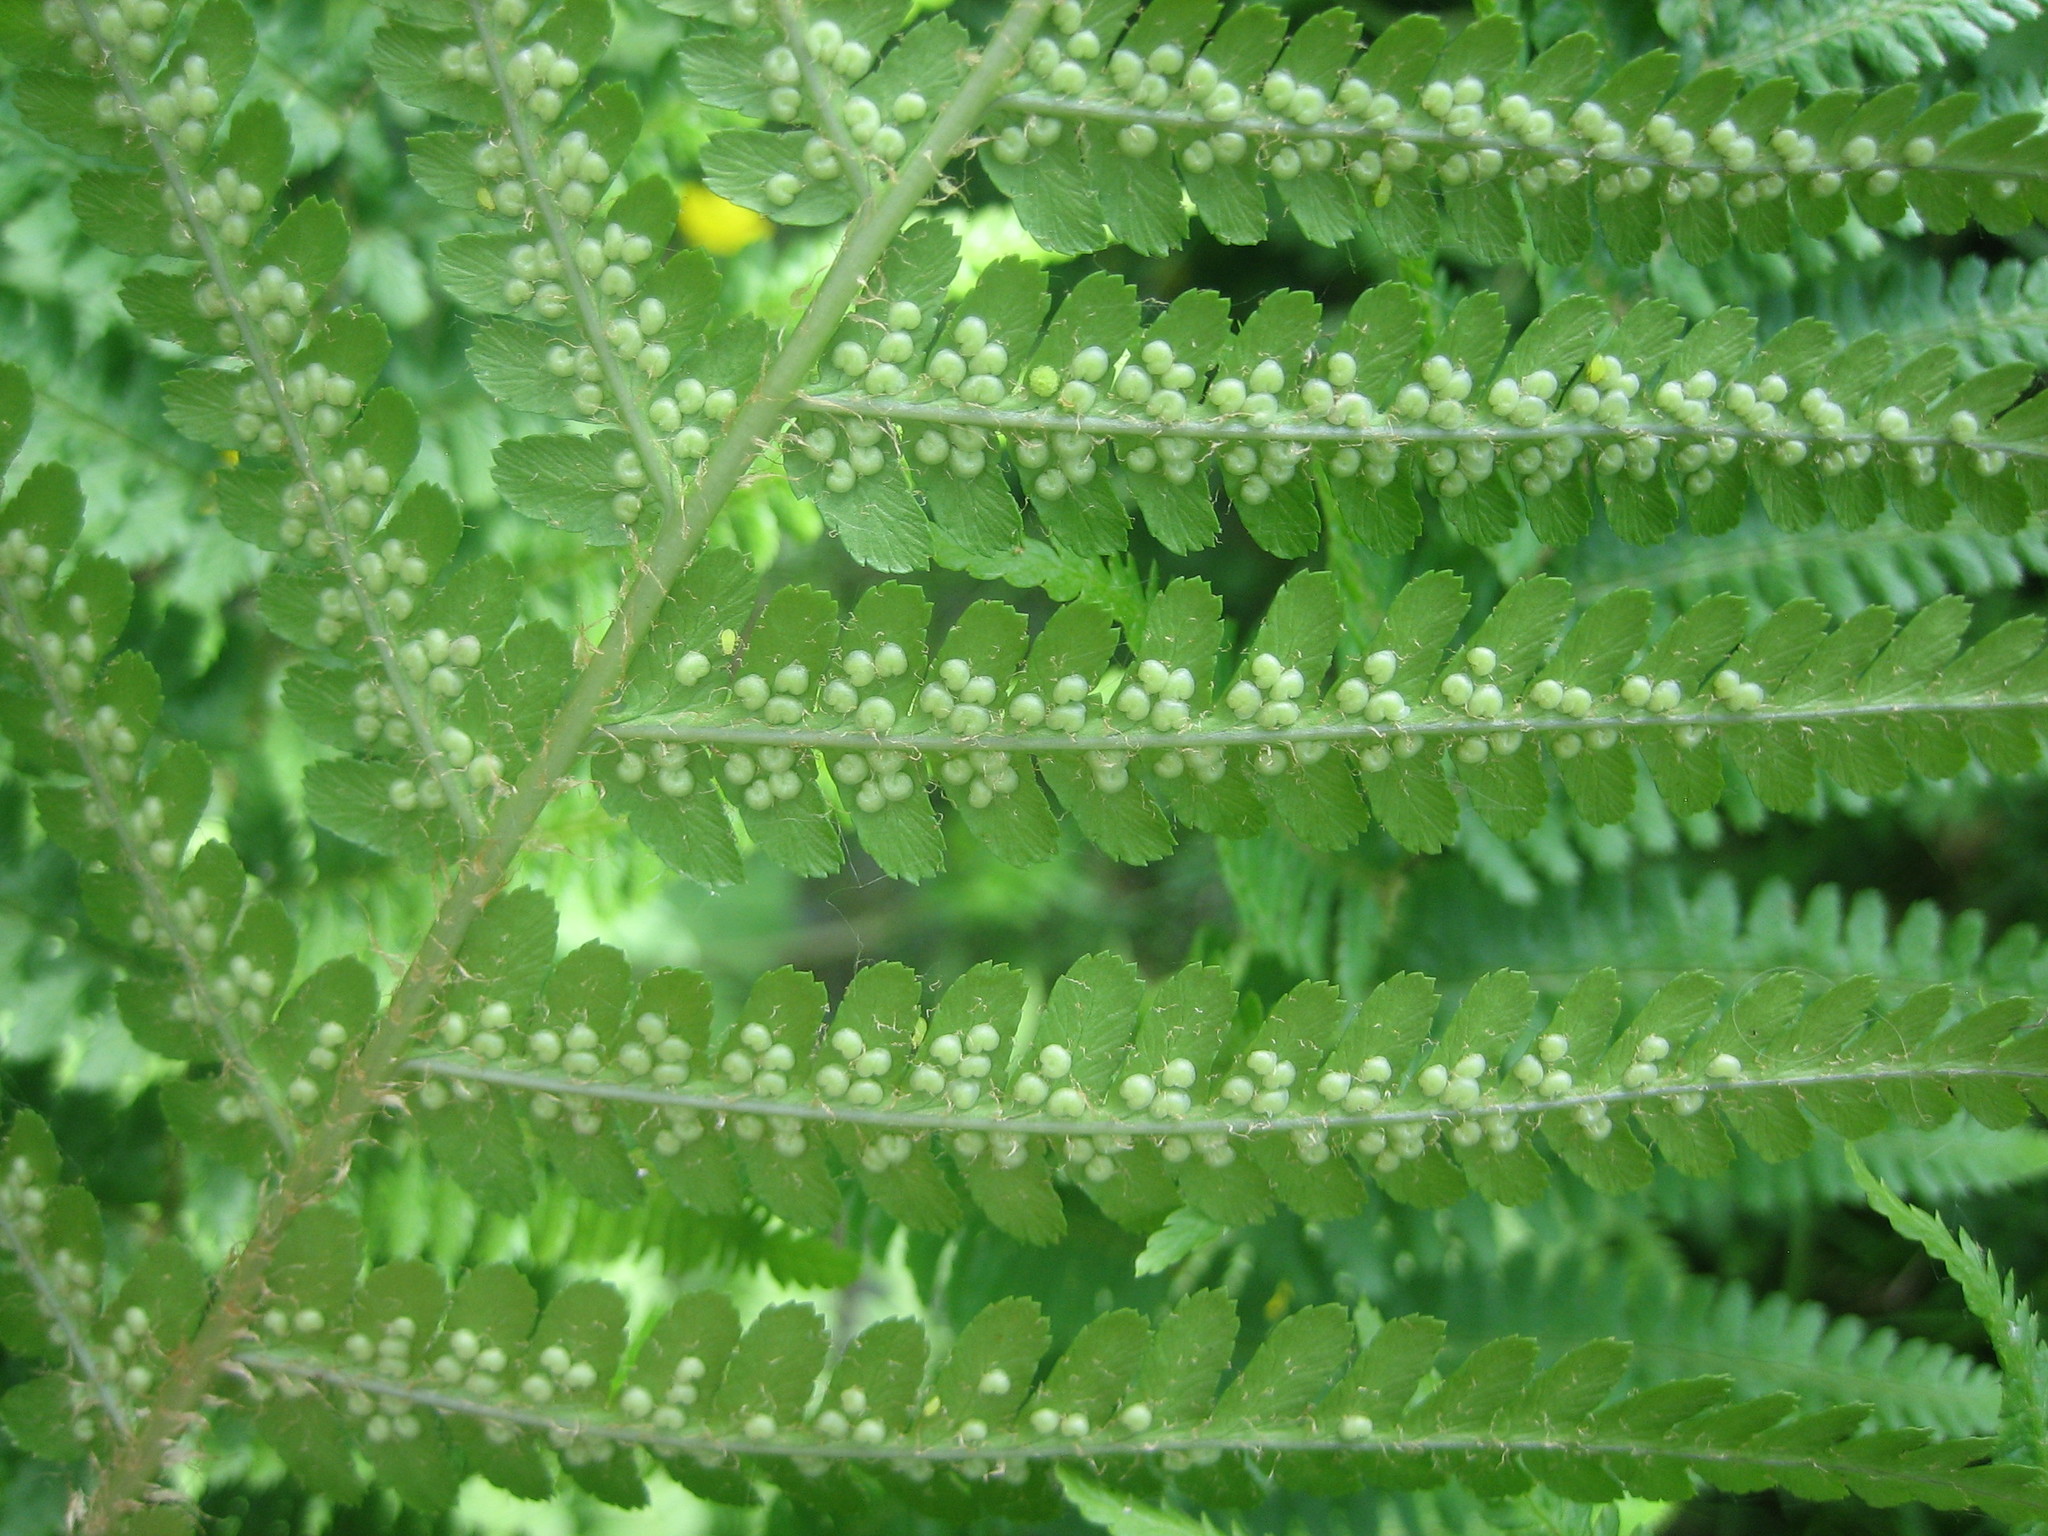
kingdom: Plantae
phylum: Tracheophyta
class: Polypodiopsida
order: Polypodiales
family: Dryopteridaceae
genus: Dryopteris
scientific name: Dryopteris filix-mas
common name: Male fern
